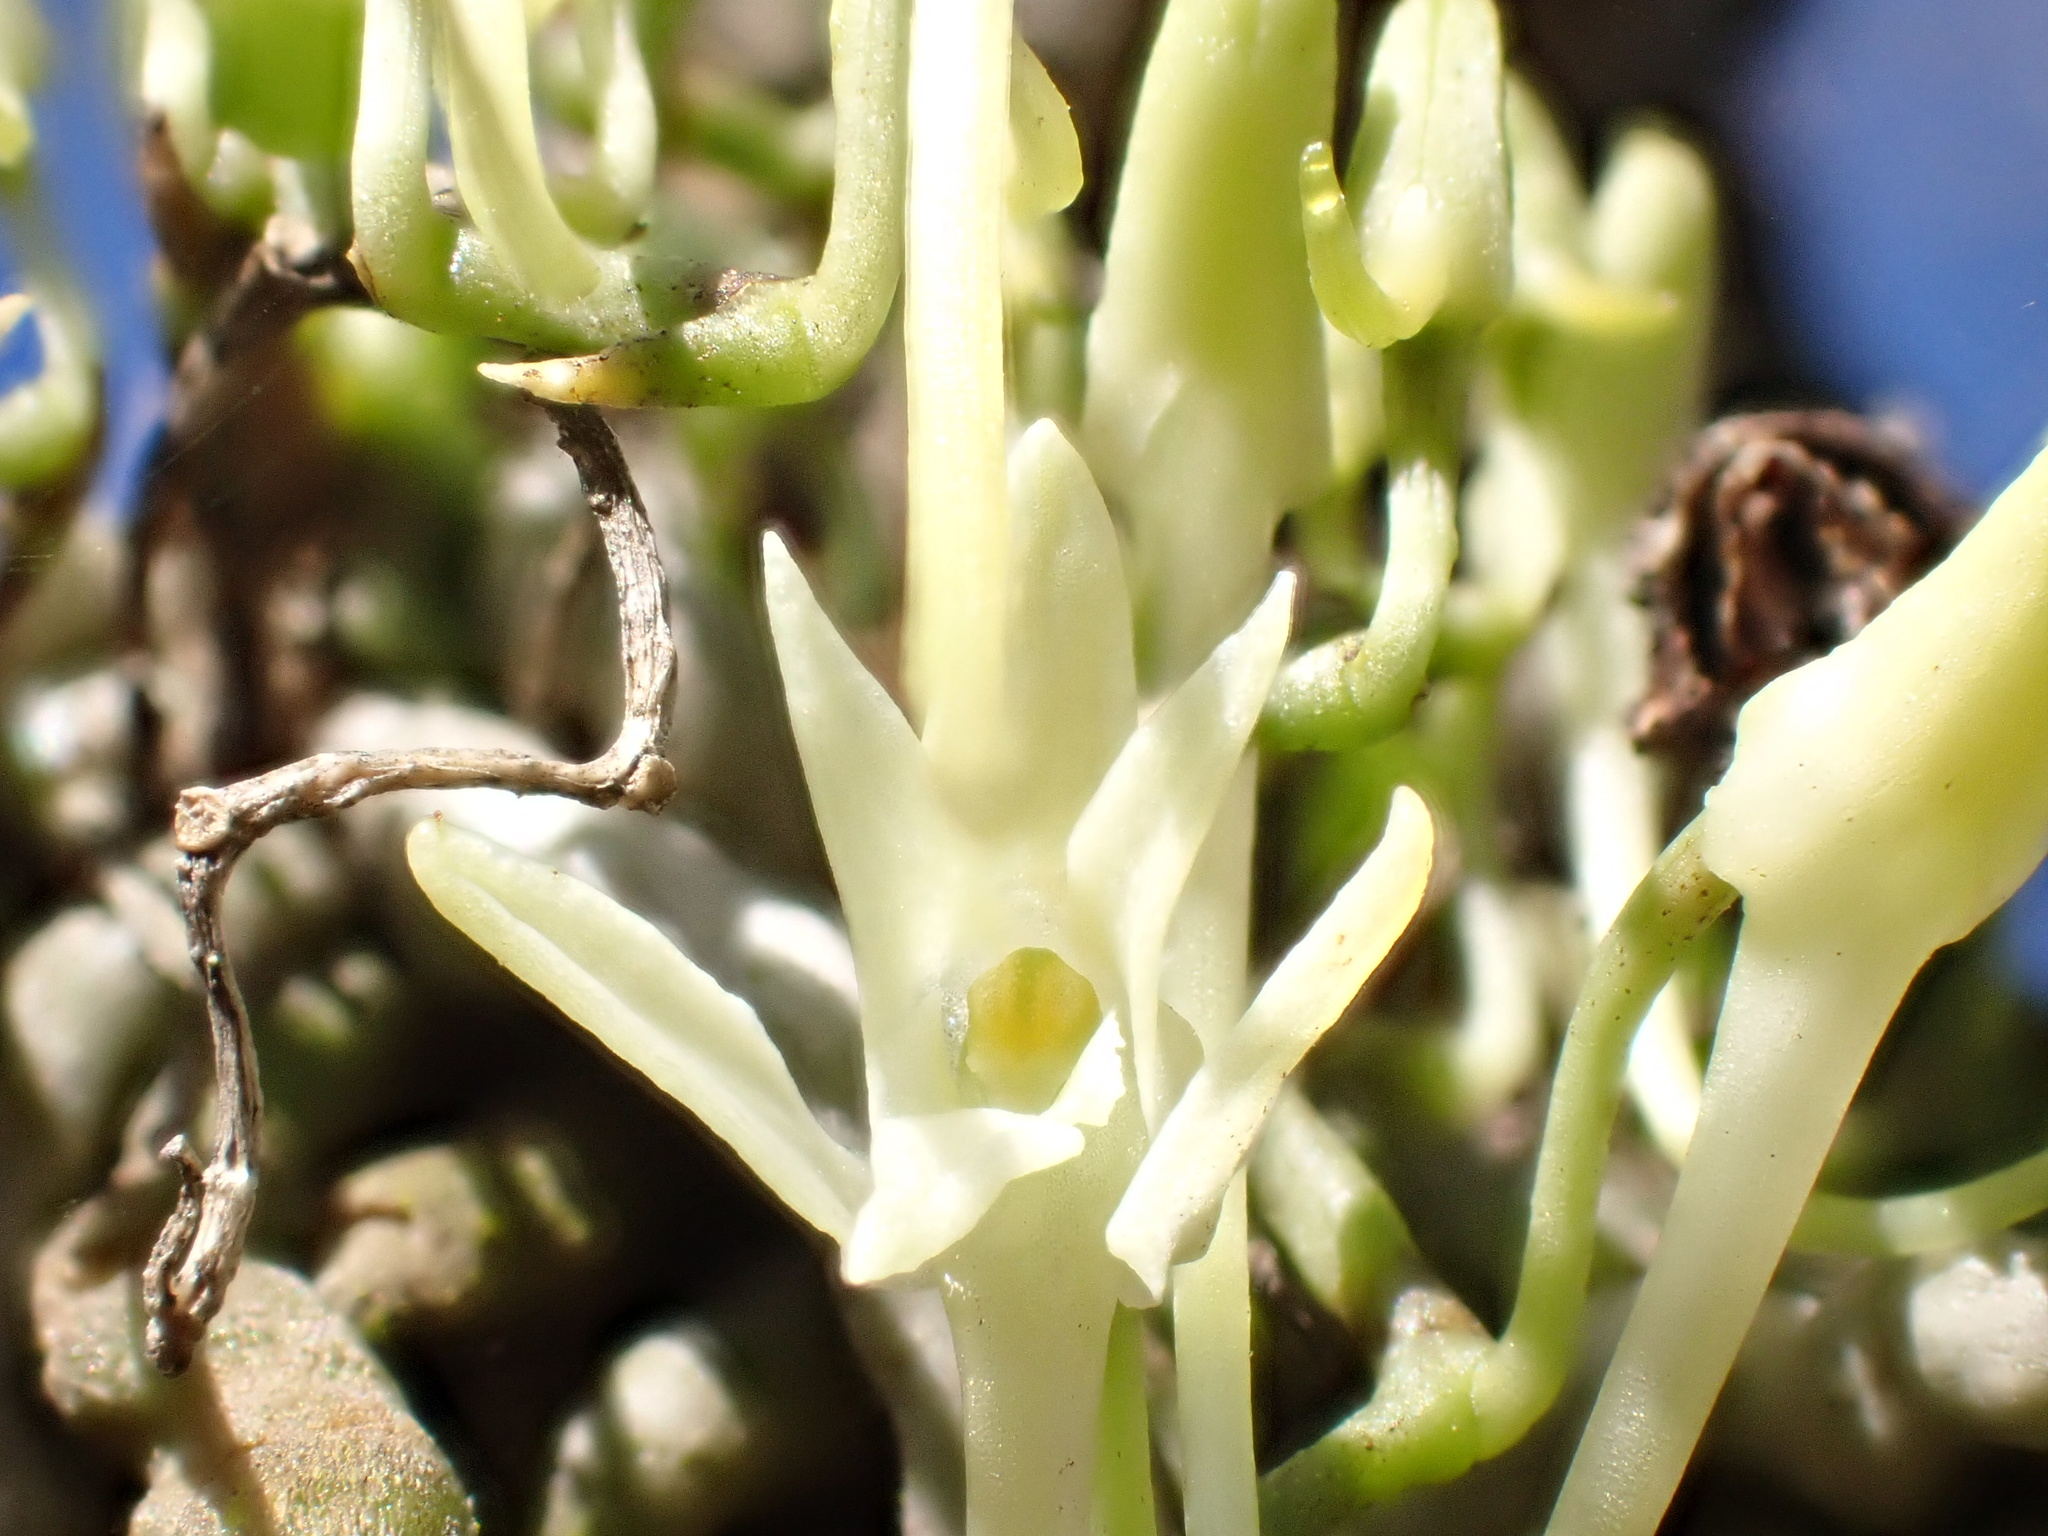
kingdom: Plantae
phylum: Tracheophyta
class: Liliopsida
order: Asparagales
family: Orchidaceae
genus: Mystacidium
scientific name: Mystacidium venosum
